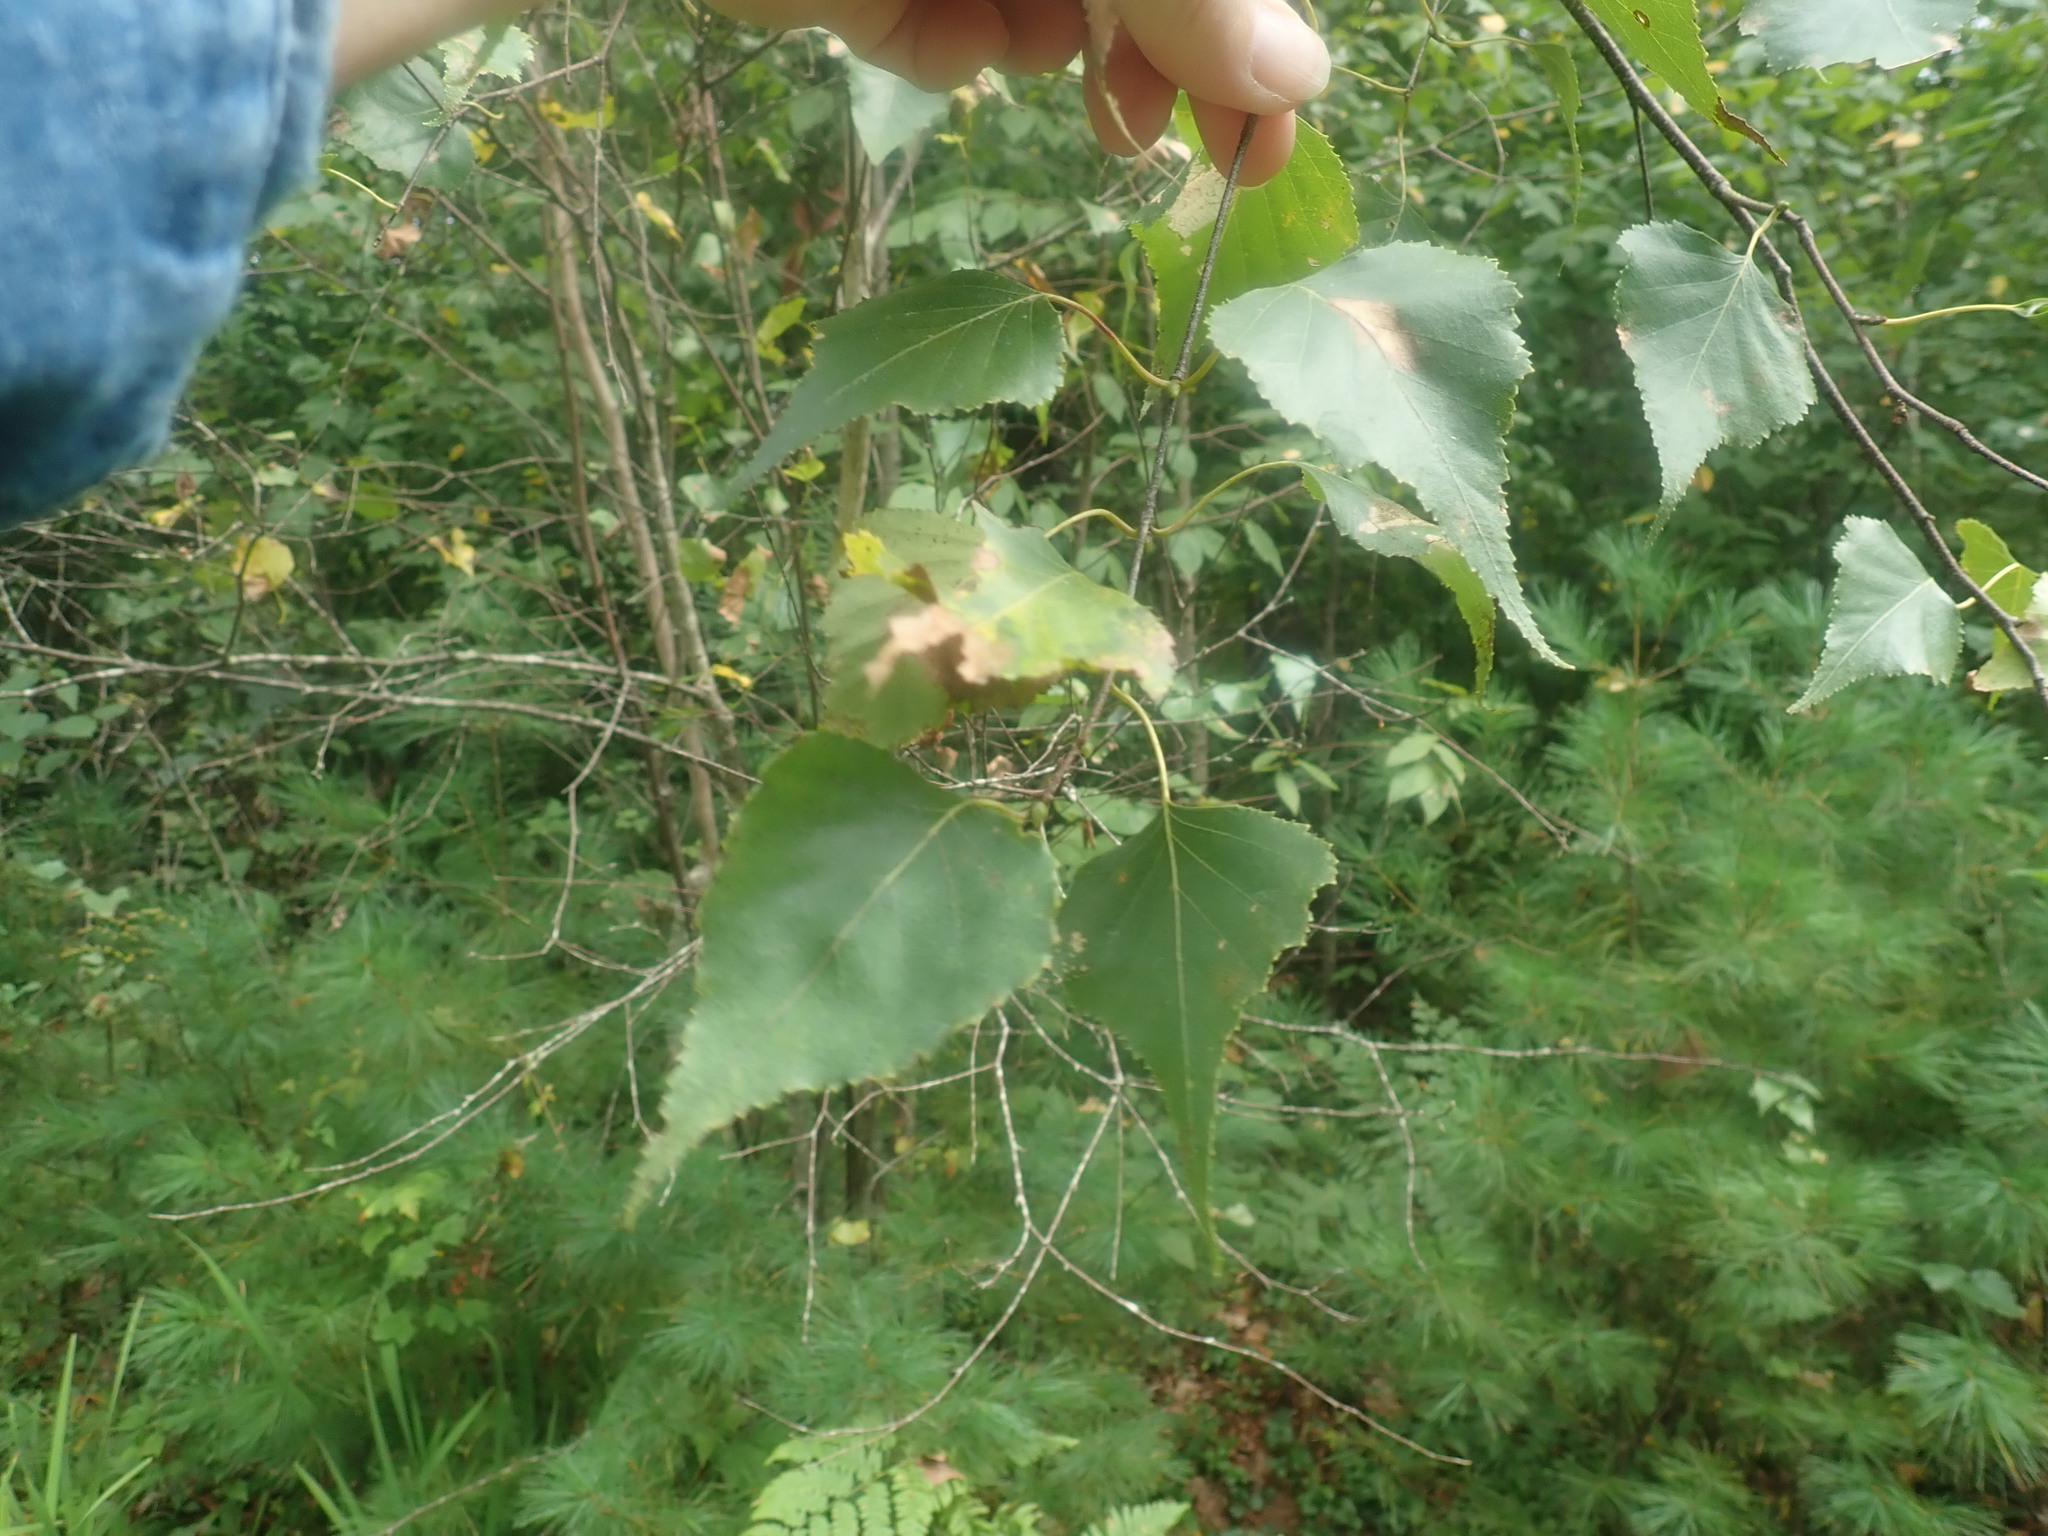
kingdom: Plantae
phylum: Tracheophyta
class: Magnoliopsida
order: Fagales
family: Betulaceae
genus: Betula
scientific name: Betula populifolia
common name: Fire birch
